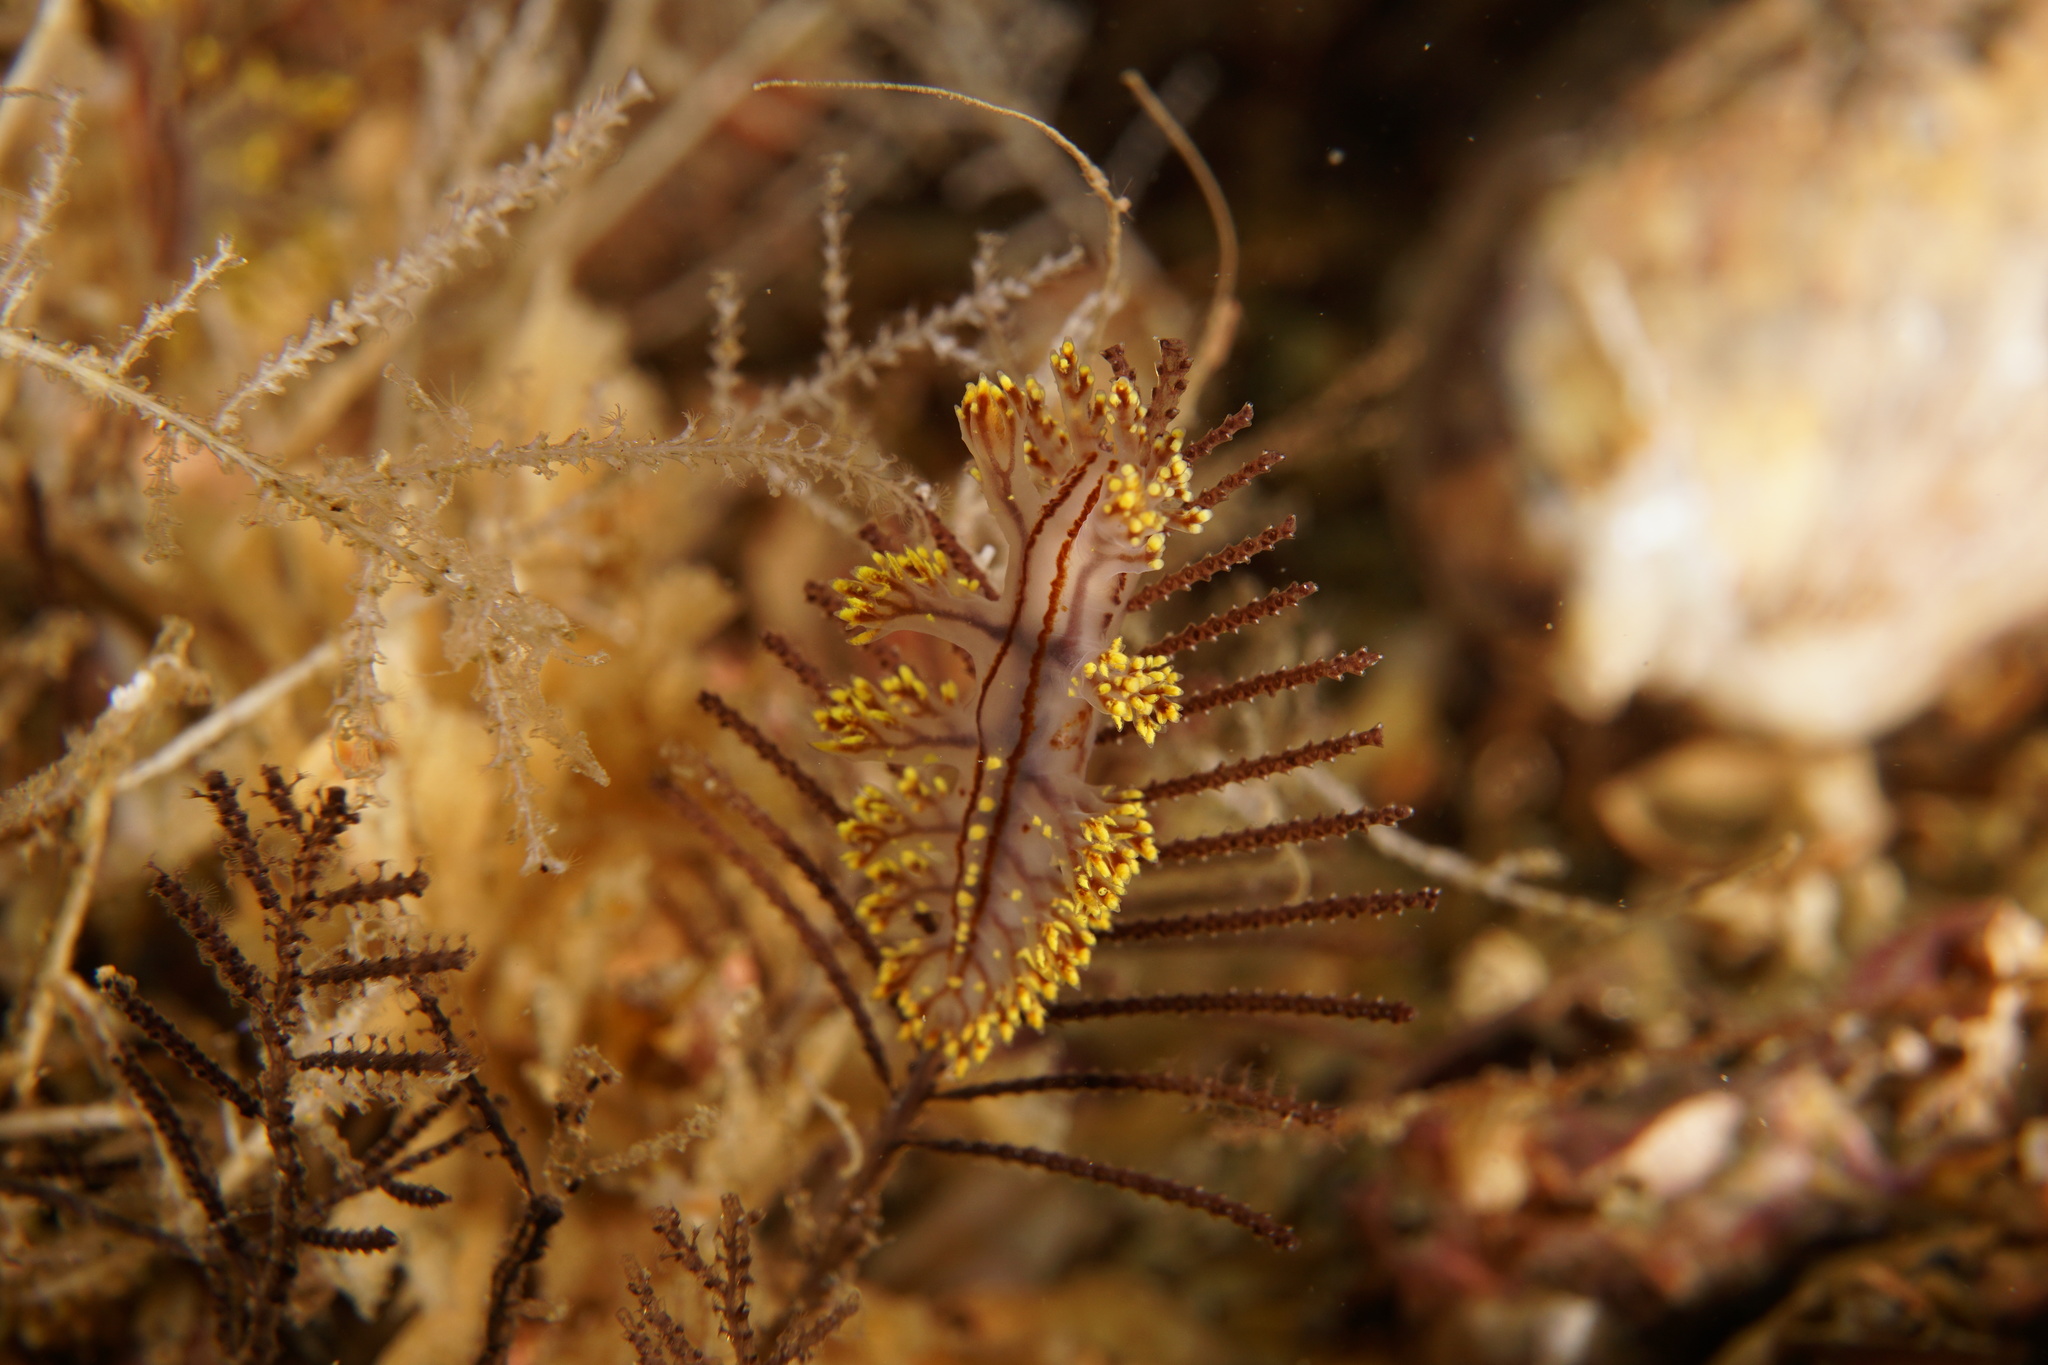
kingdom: Animalia
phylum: Mollusca
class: Gastropoda
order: Nudibranchia
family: Dendronotidae
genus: Dendronotus
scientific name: Dendronotus yrjargul
